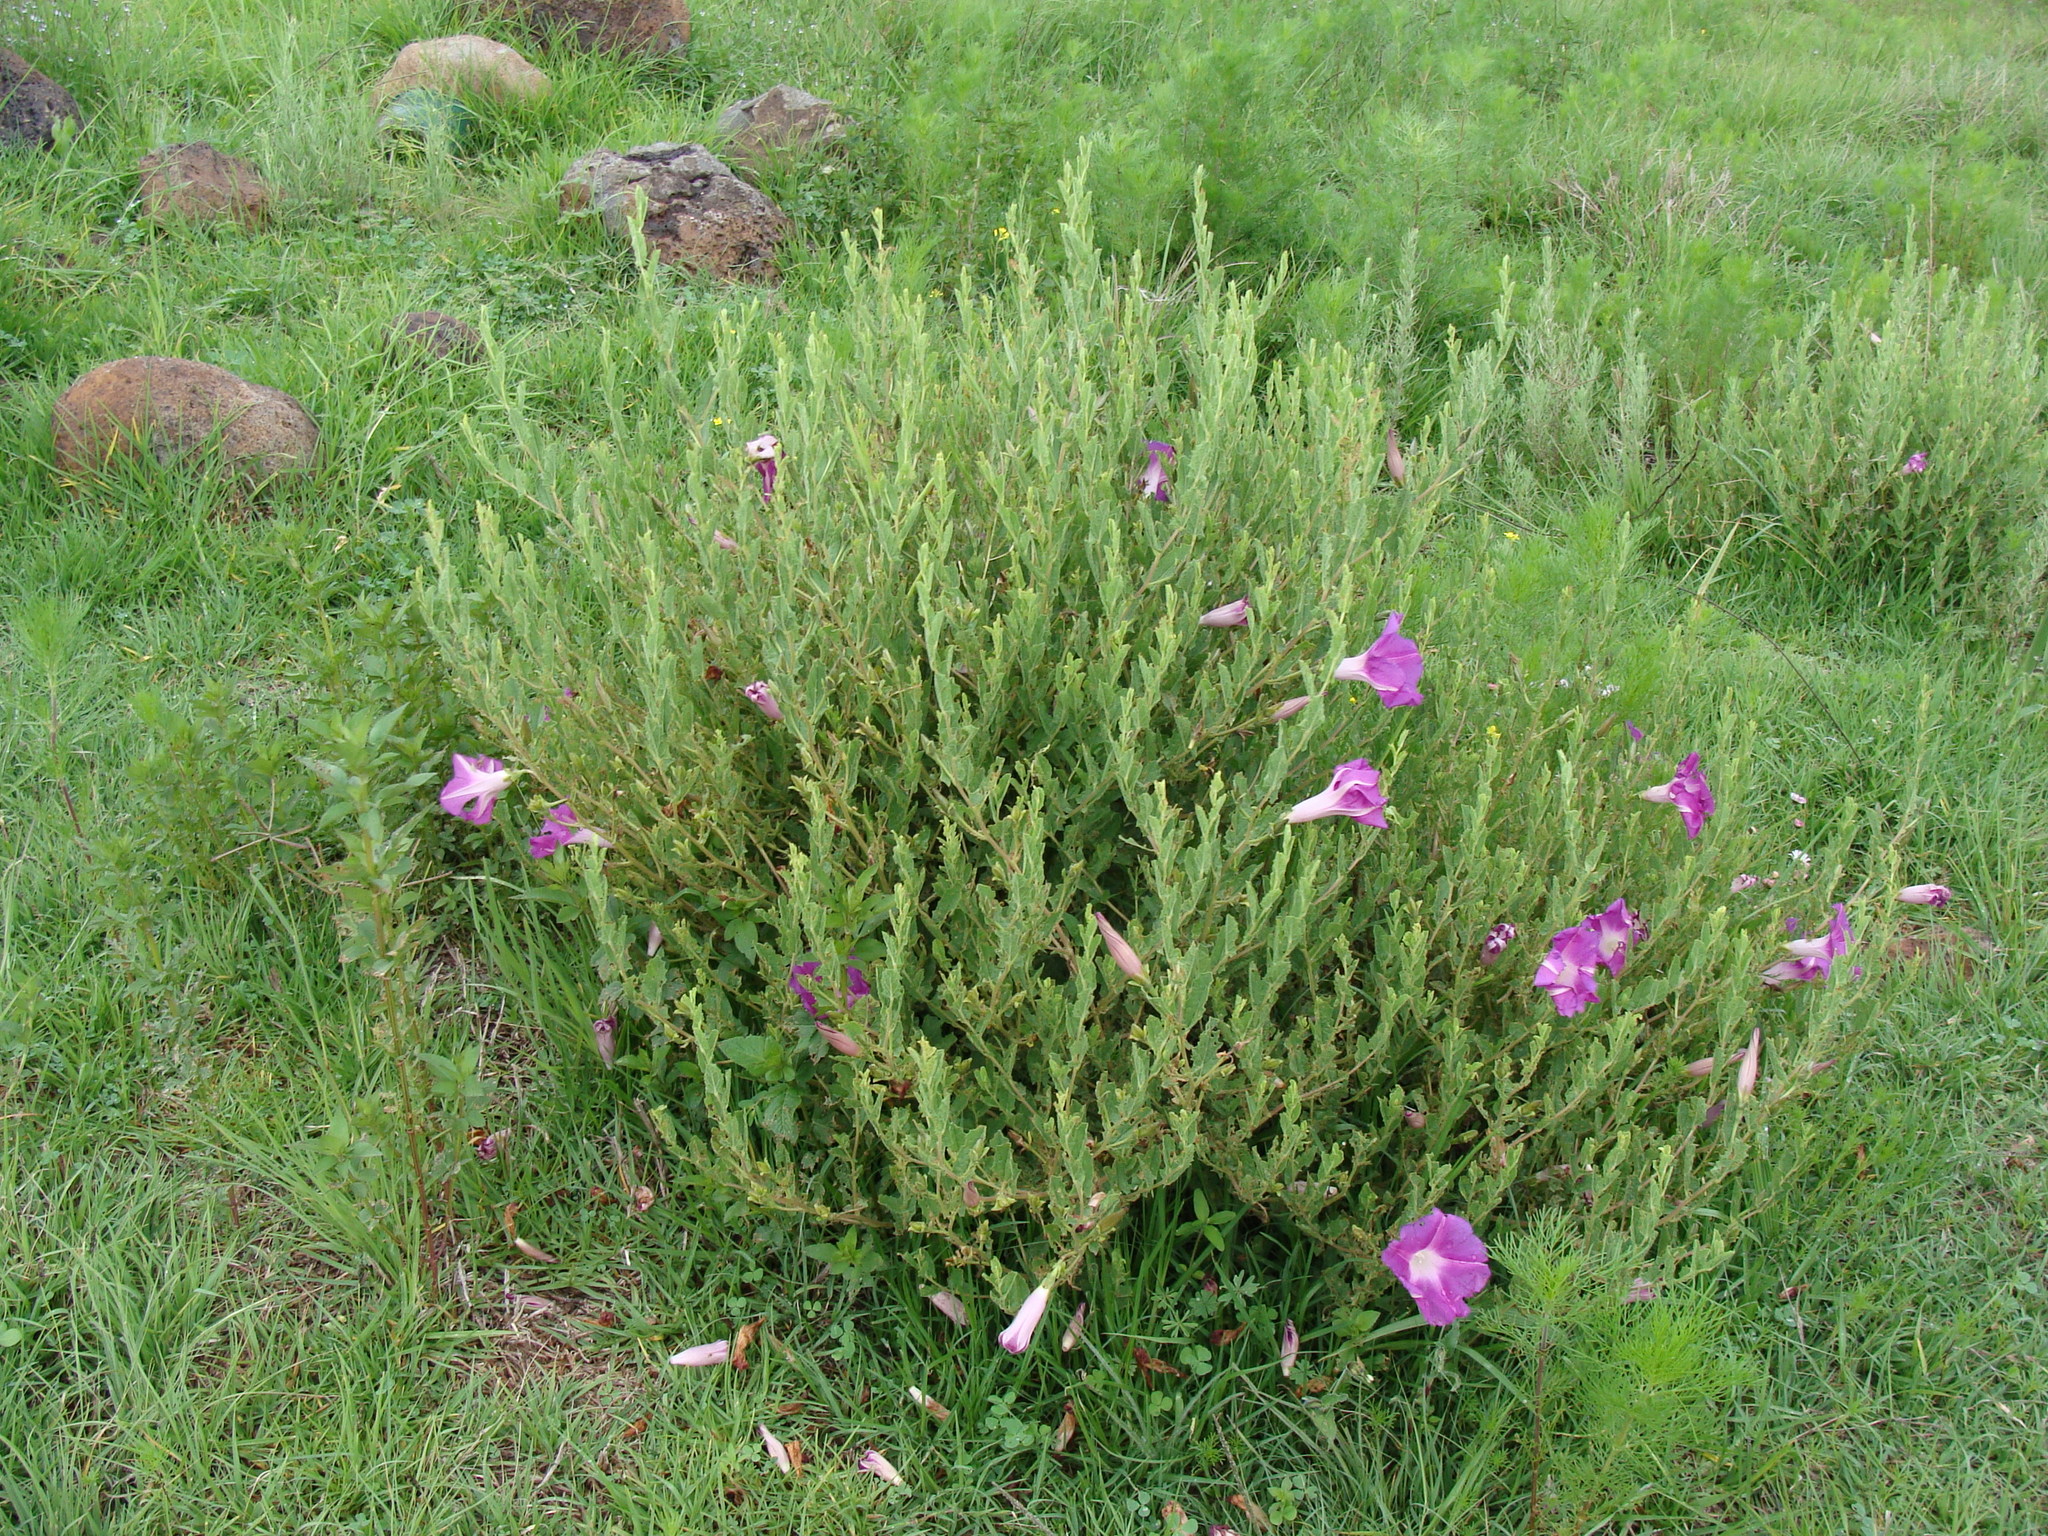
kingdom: Plantae
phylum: Tracheophyta
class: Magnoliopsida
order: Solanales
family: Convolvulaceae
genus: Ipomoea
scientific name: Ipomoea stans
